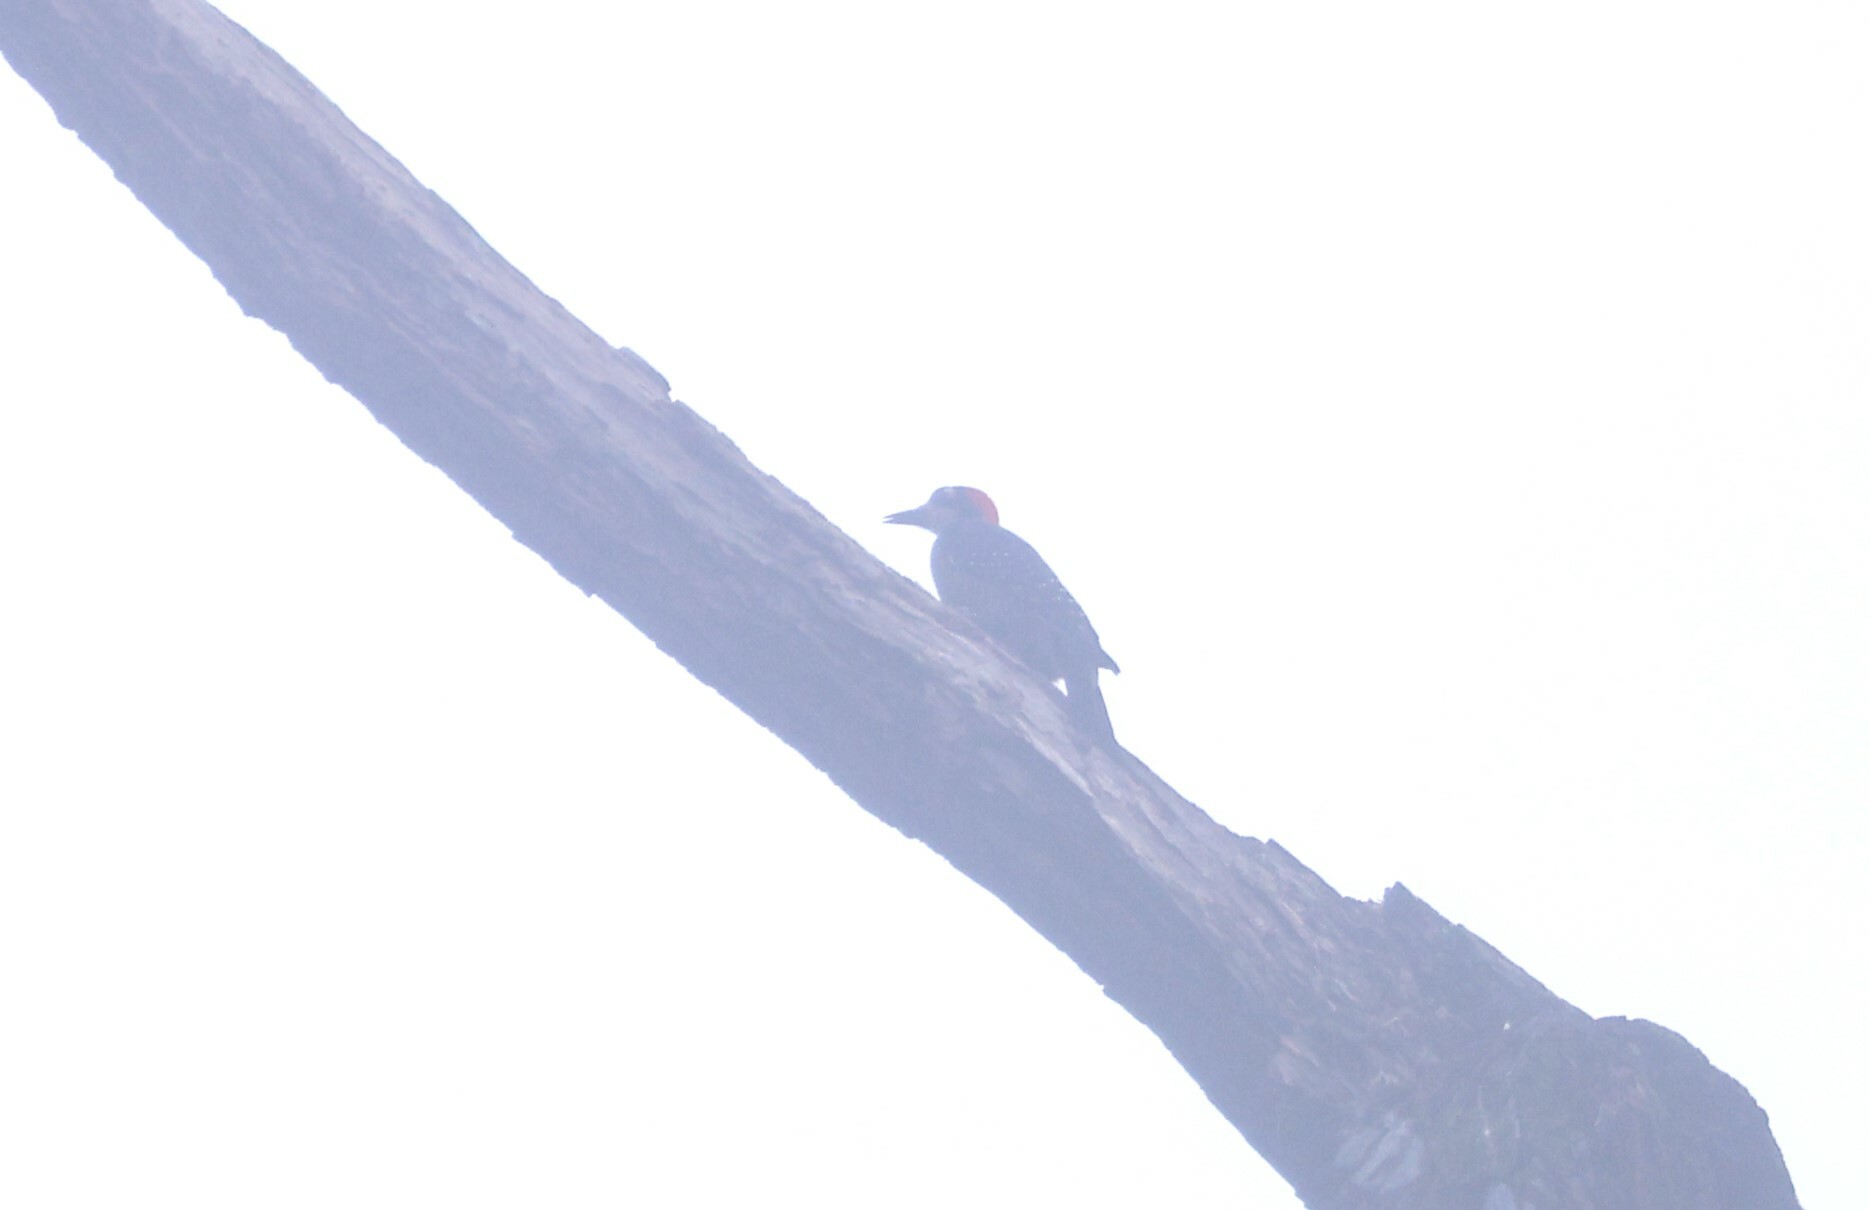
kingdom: Animalia
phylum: Chordata
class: Aves
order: Piciformes
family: Picidae
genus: Melanerpes
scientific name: Melanerpes pucherani
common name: Black-cheeked woodpecker
